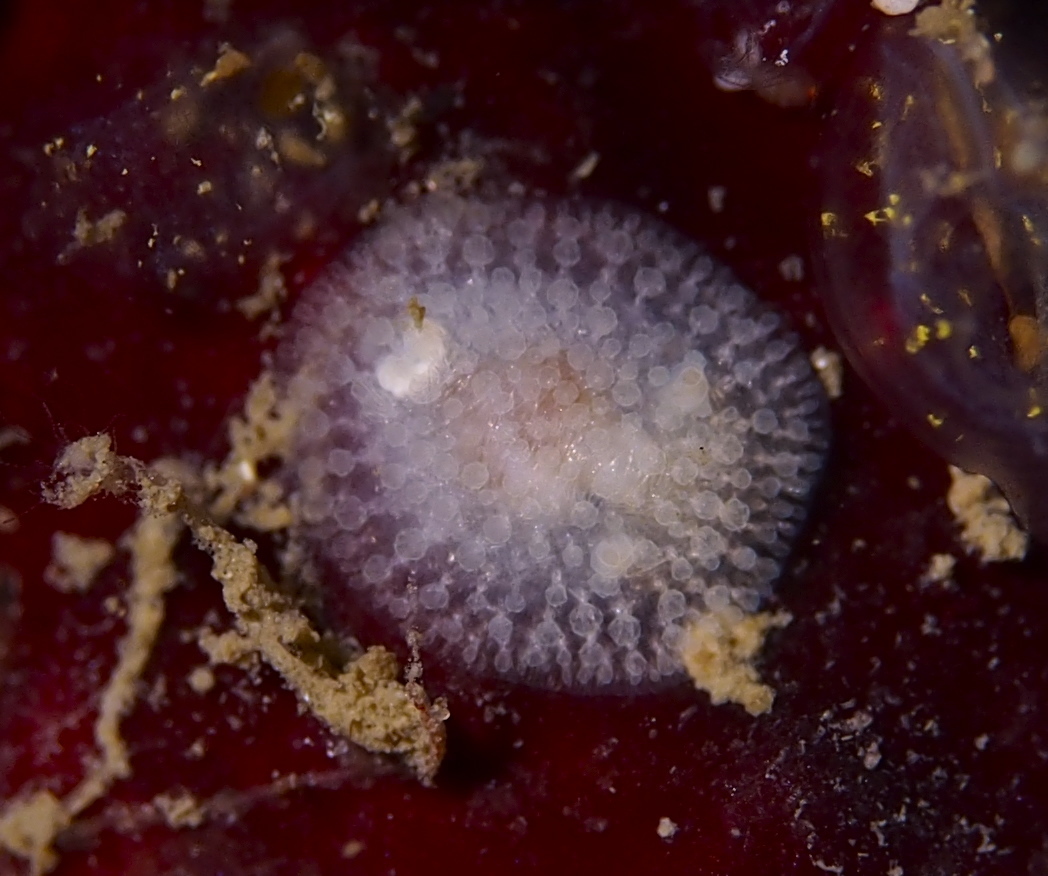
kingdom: Animalia
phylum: Mollusca
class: Gastropoda
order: Nudibranchia
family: Onchidorididae
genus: Onchidoris
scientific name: Onchidoris muricata
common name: Rough doris
